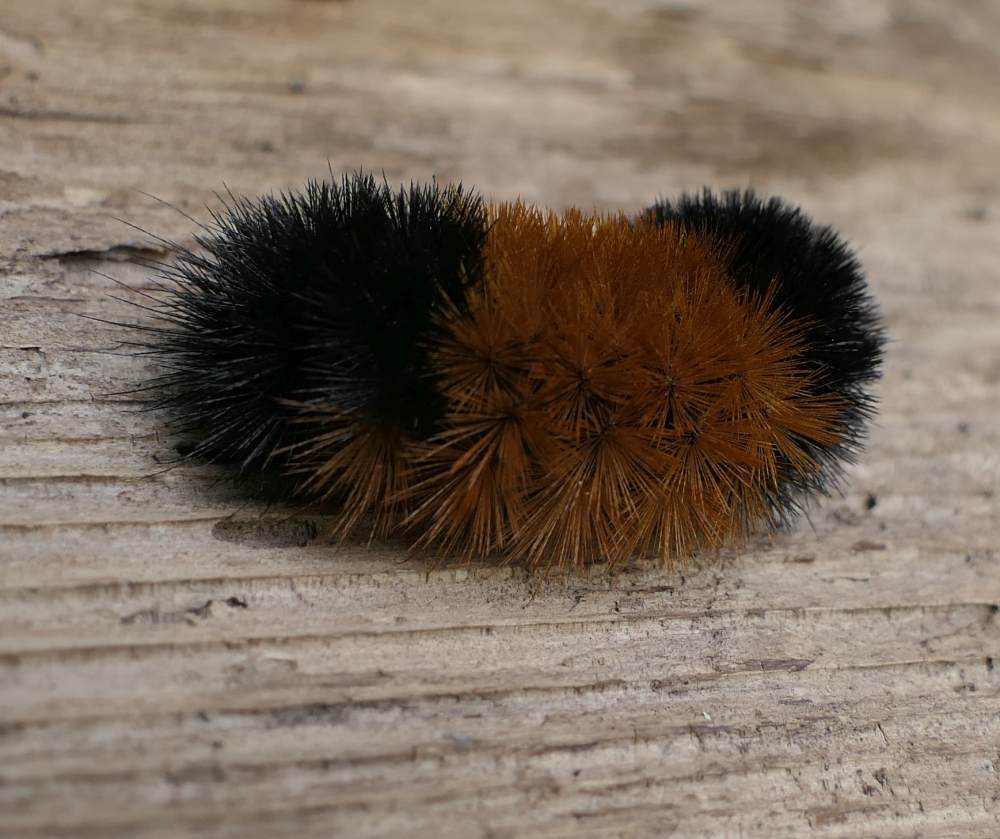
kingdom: Animalia
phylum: Arthropoda
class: Insecta
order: Lepidoptera
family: Erebidae
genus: Pyrrharctia
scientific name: Pyrrharctia isabella
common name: Isabella tiger moth
